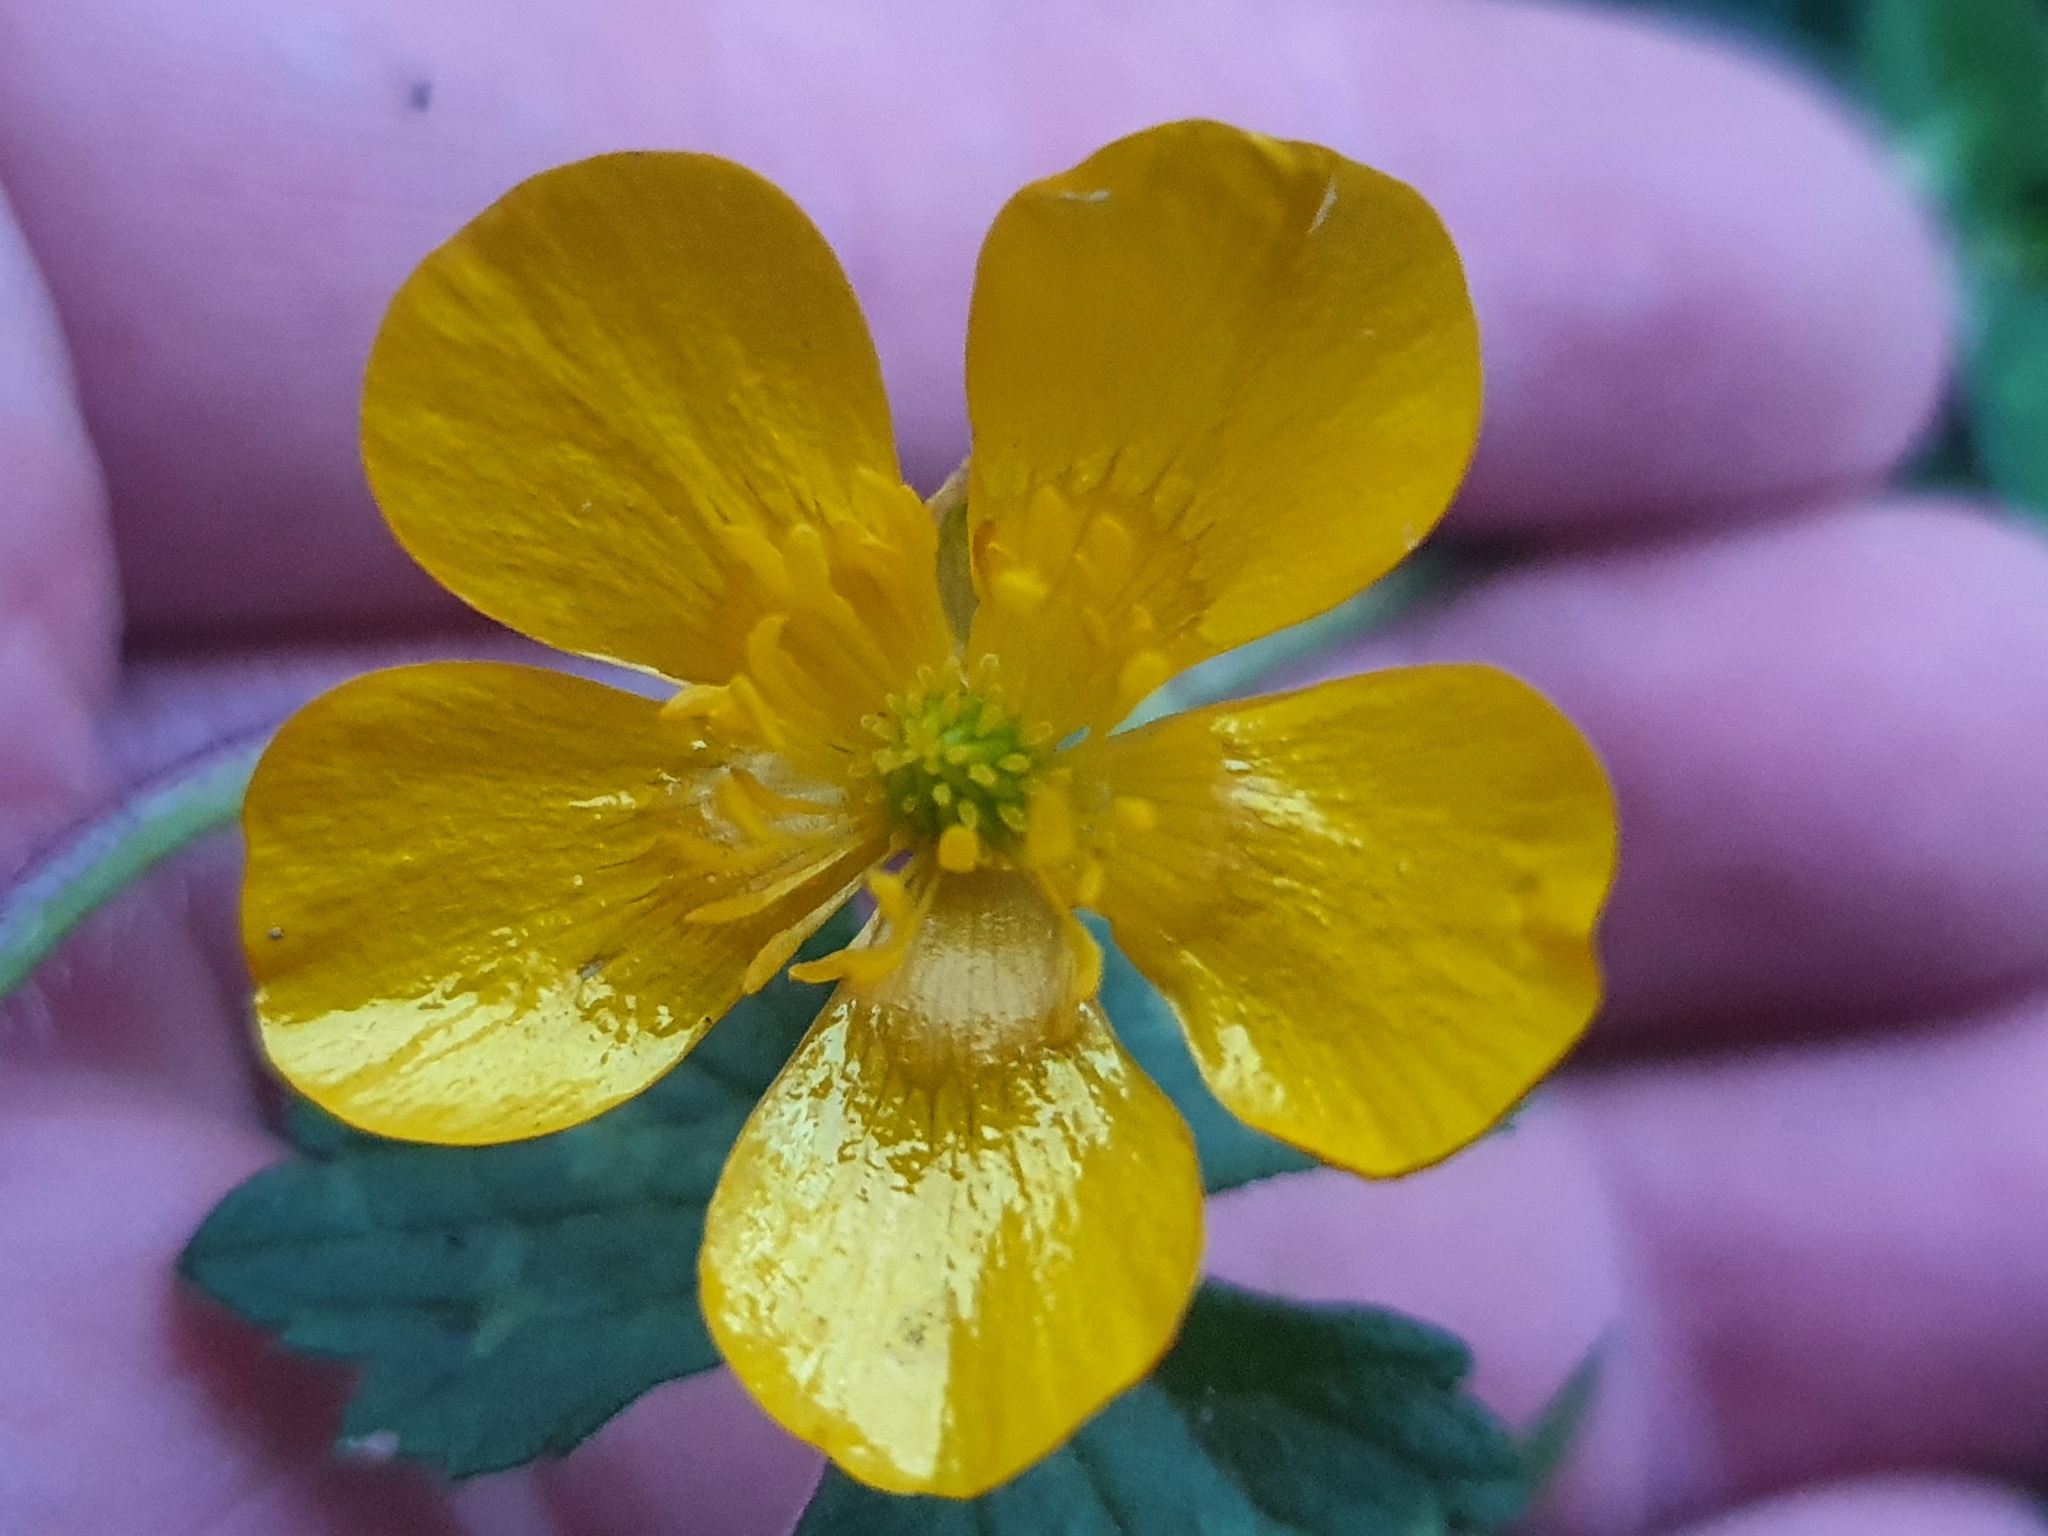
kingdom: Plantae
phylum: Tracheophyta
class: Magnoliopsida
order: Ranunculales
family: Ranunculaceae
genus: Ranunculus
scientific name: Ranunculus repens
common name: Creeping buttercup
